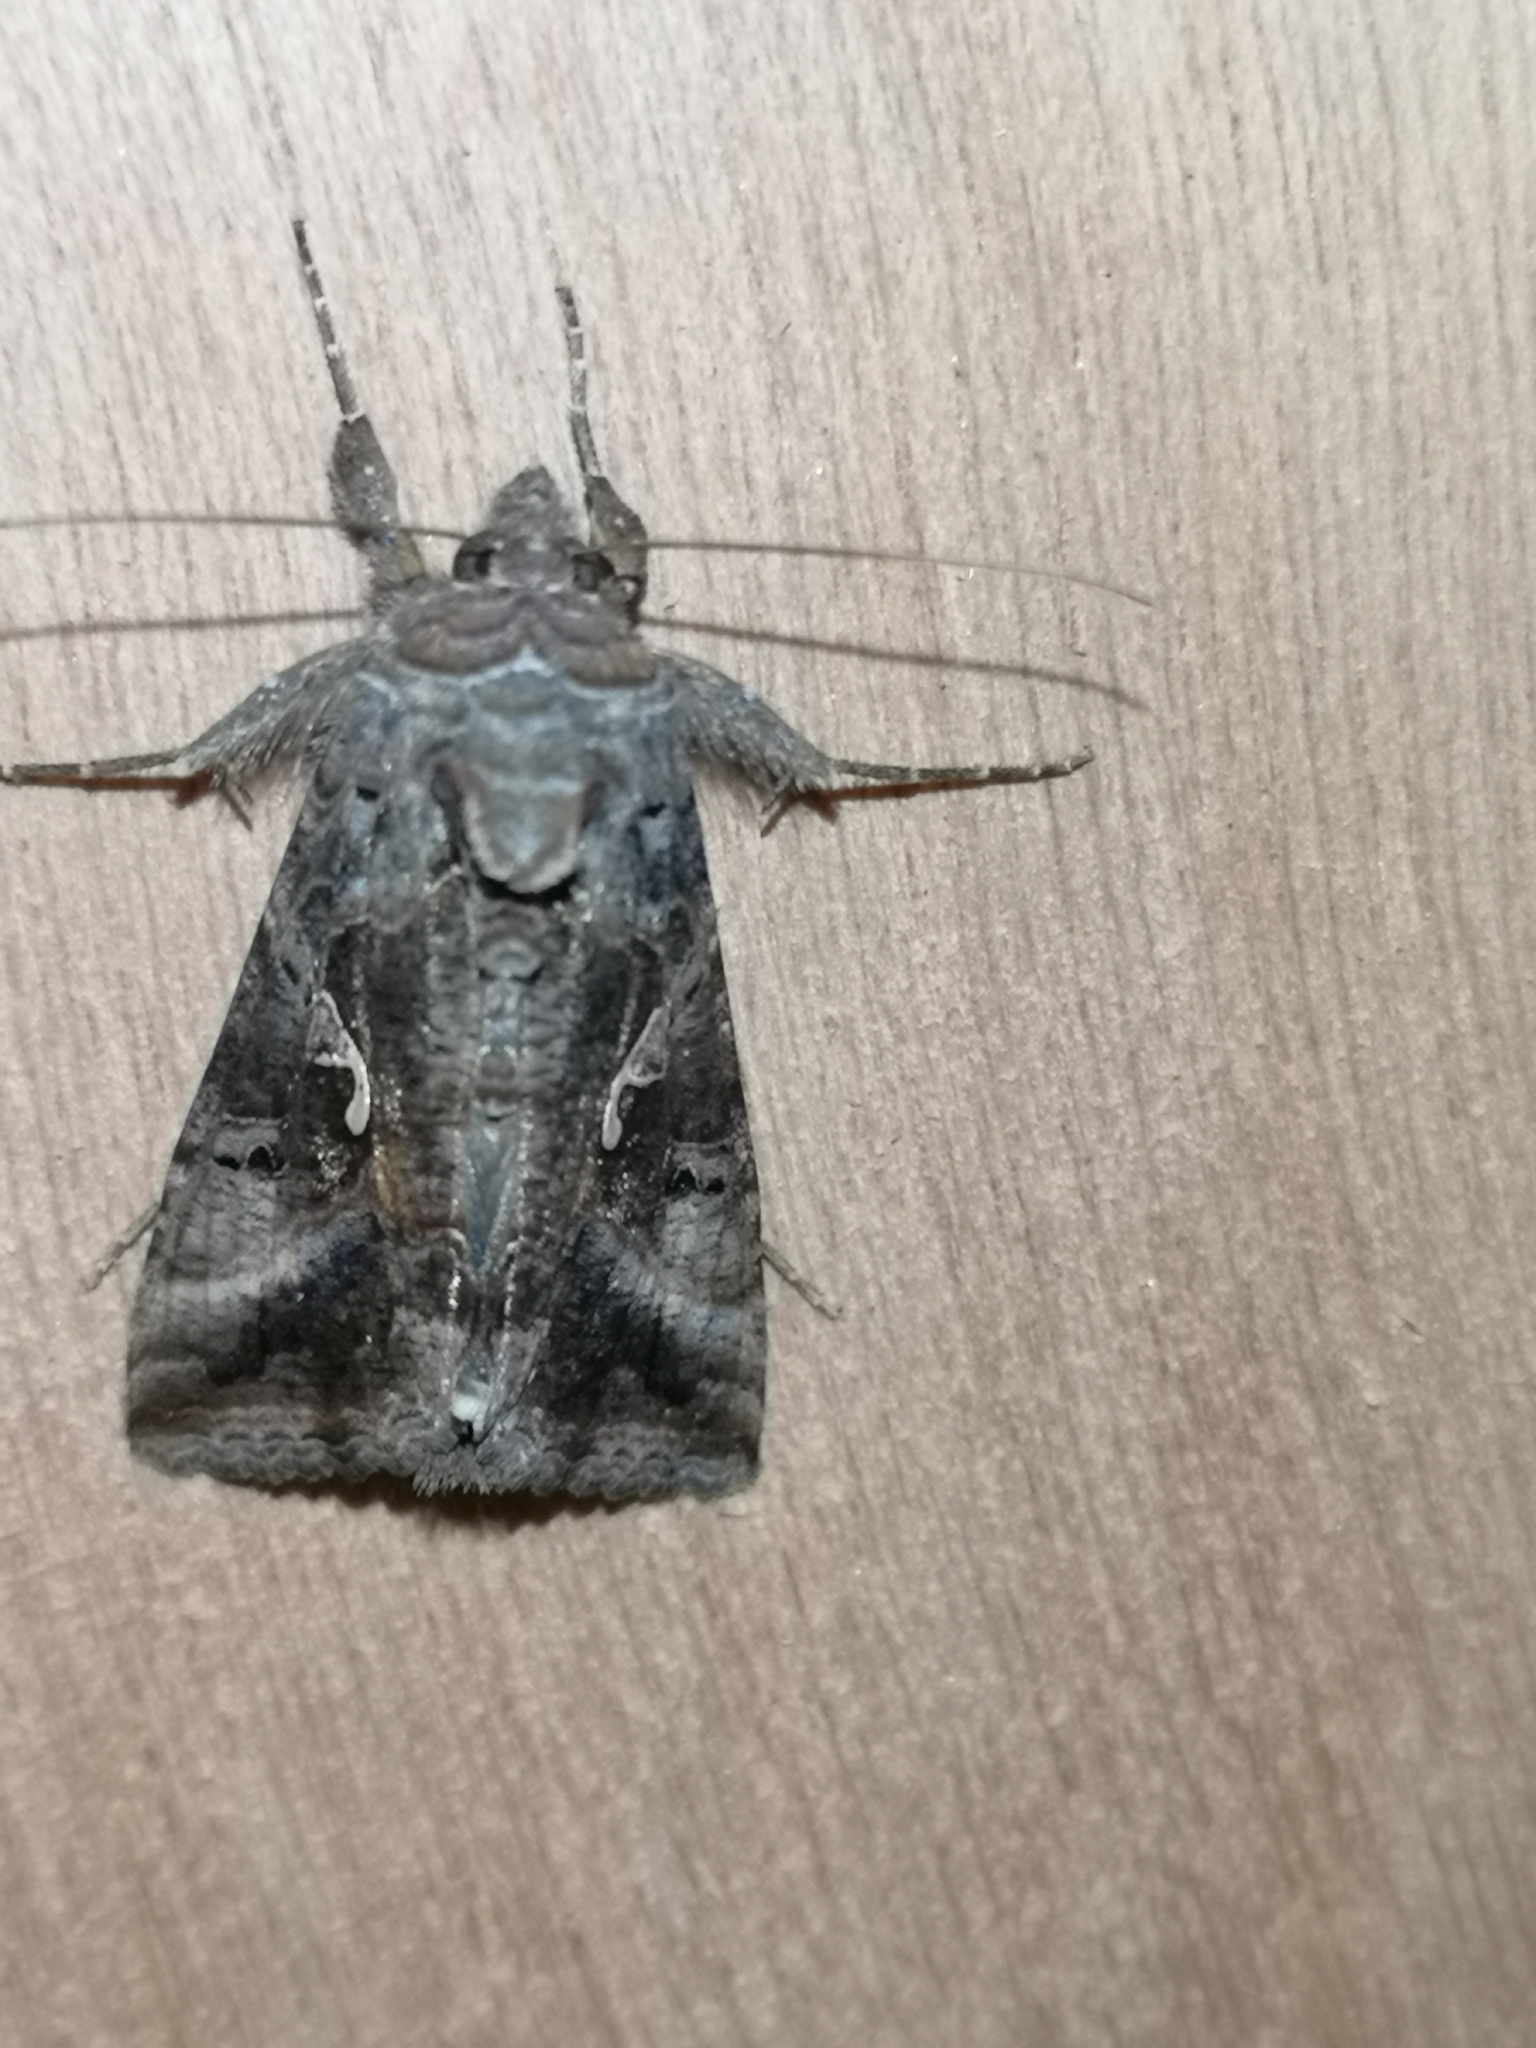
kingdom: Animalia
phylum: Arthropoda
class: Insecta
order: Lepidoptera
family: Noctuidae
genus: Autographa
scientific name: Autographa gamma
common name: Silver y
